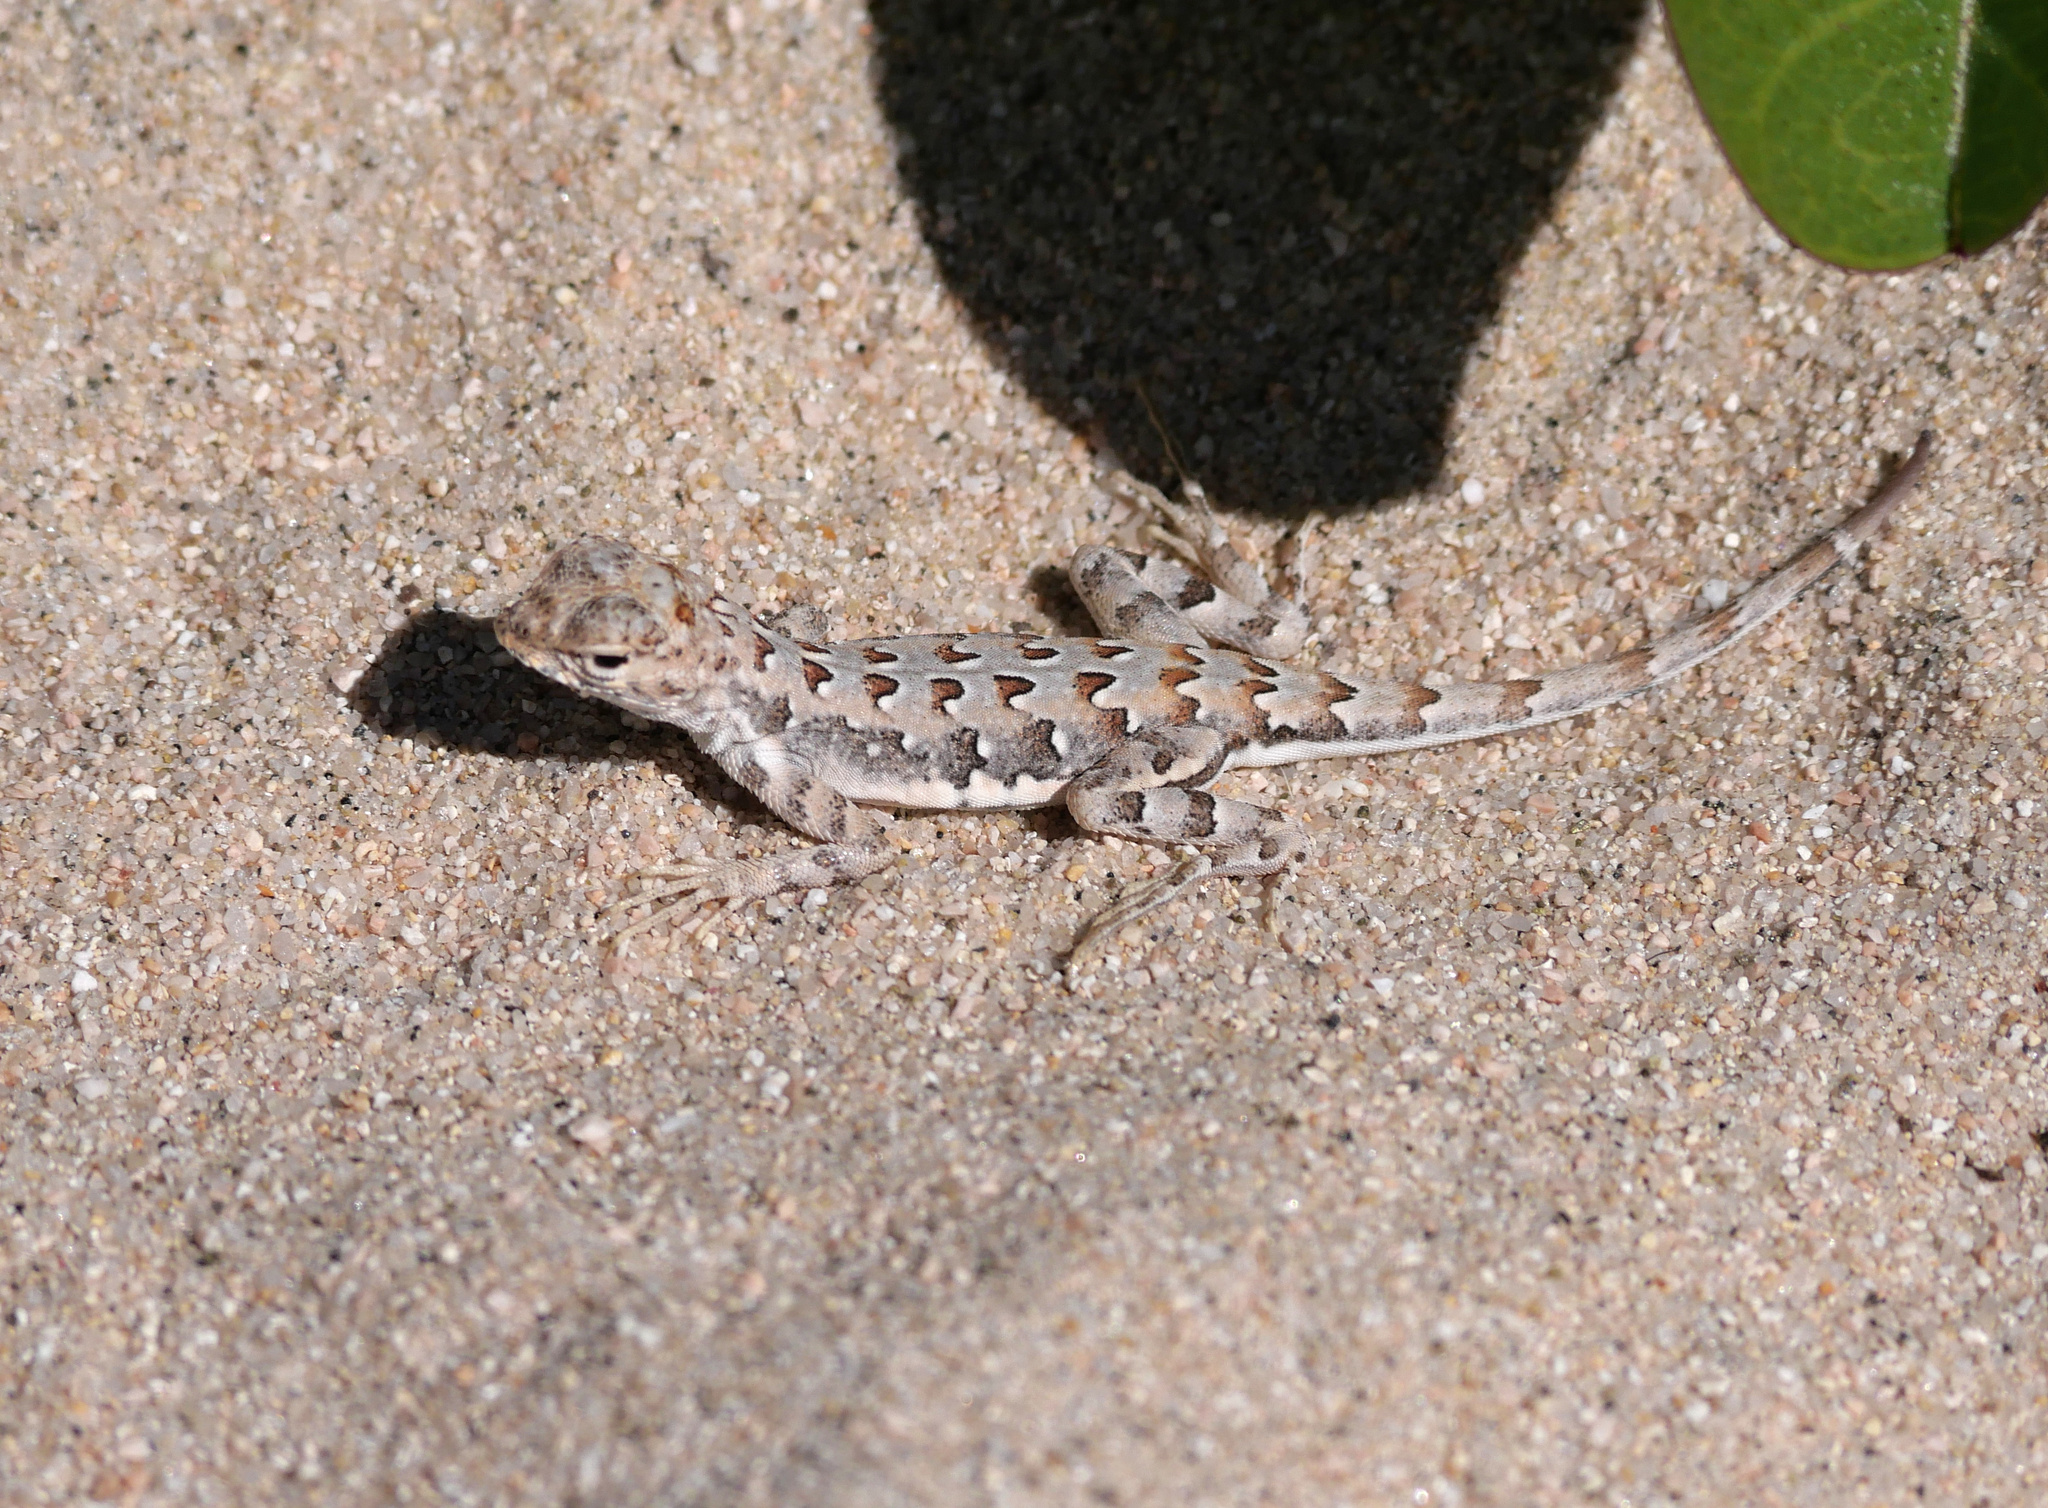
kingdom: Animalia
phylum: Chordata
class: Squamata
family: Phrynosomatidae
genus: Callisaurus
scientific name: Callisaurus draconoides
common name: Zebra-tailed lizard
